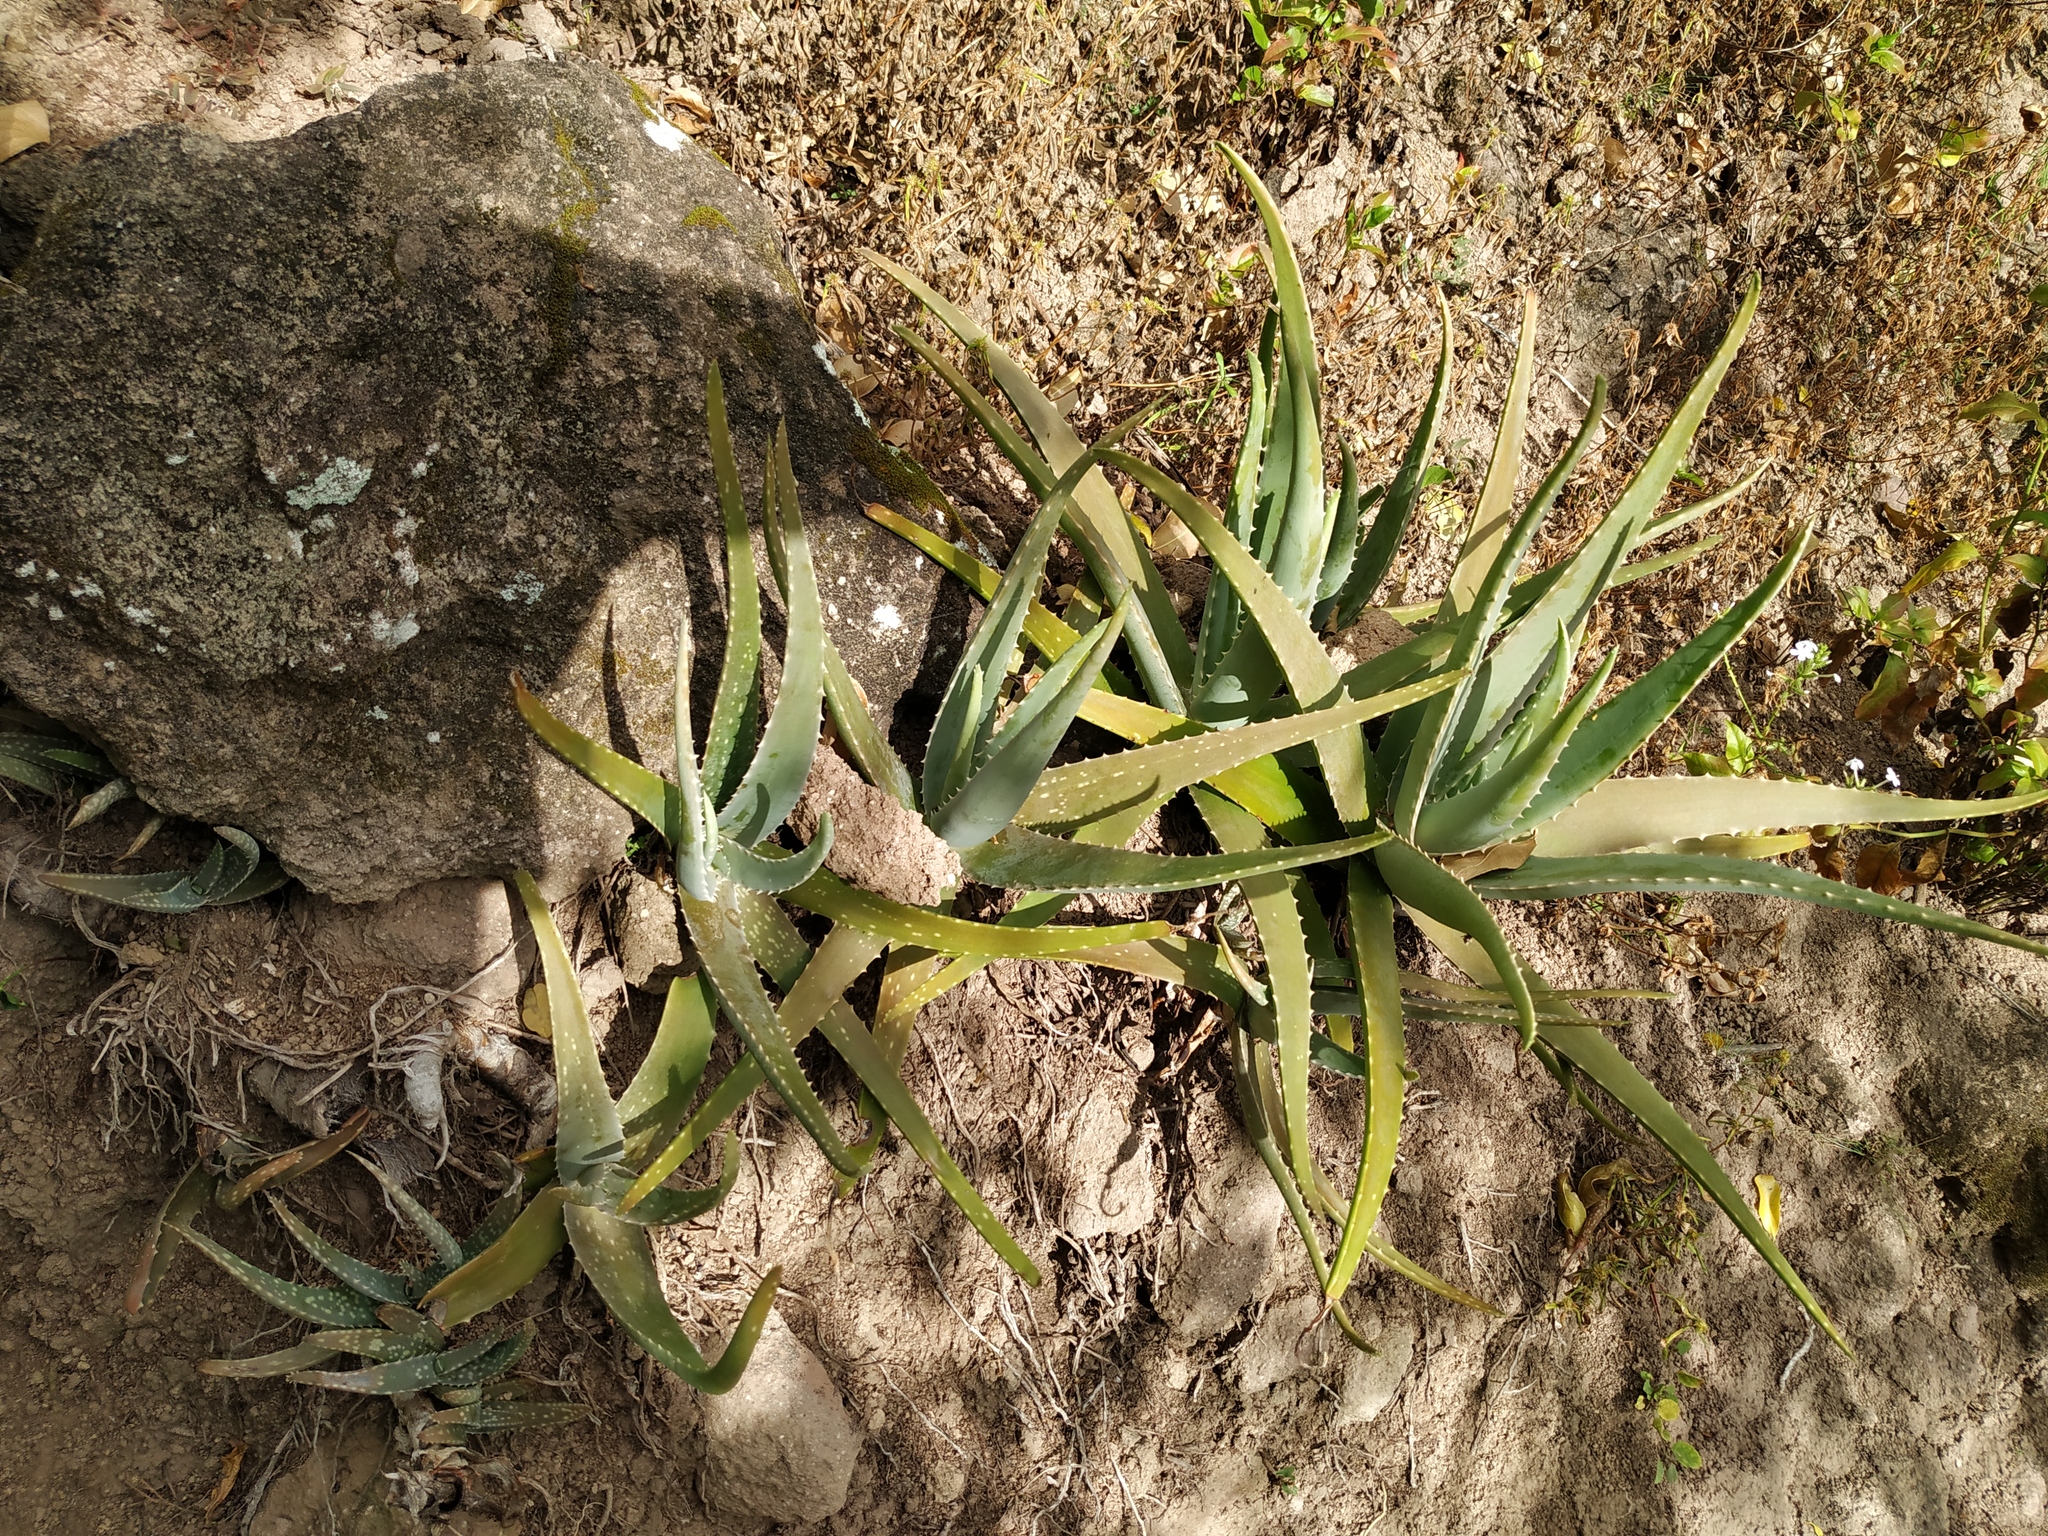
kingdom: Plantae
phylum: Tracheophyta
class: Liliopsida
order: Asparagales
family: Asphodelaceae
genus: Aloe
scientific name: Aloe vera
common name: Barbados aloe
